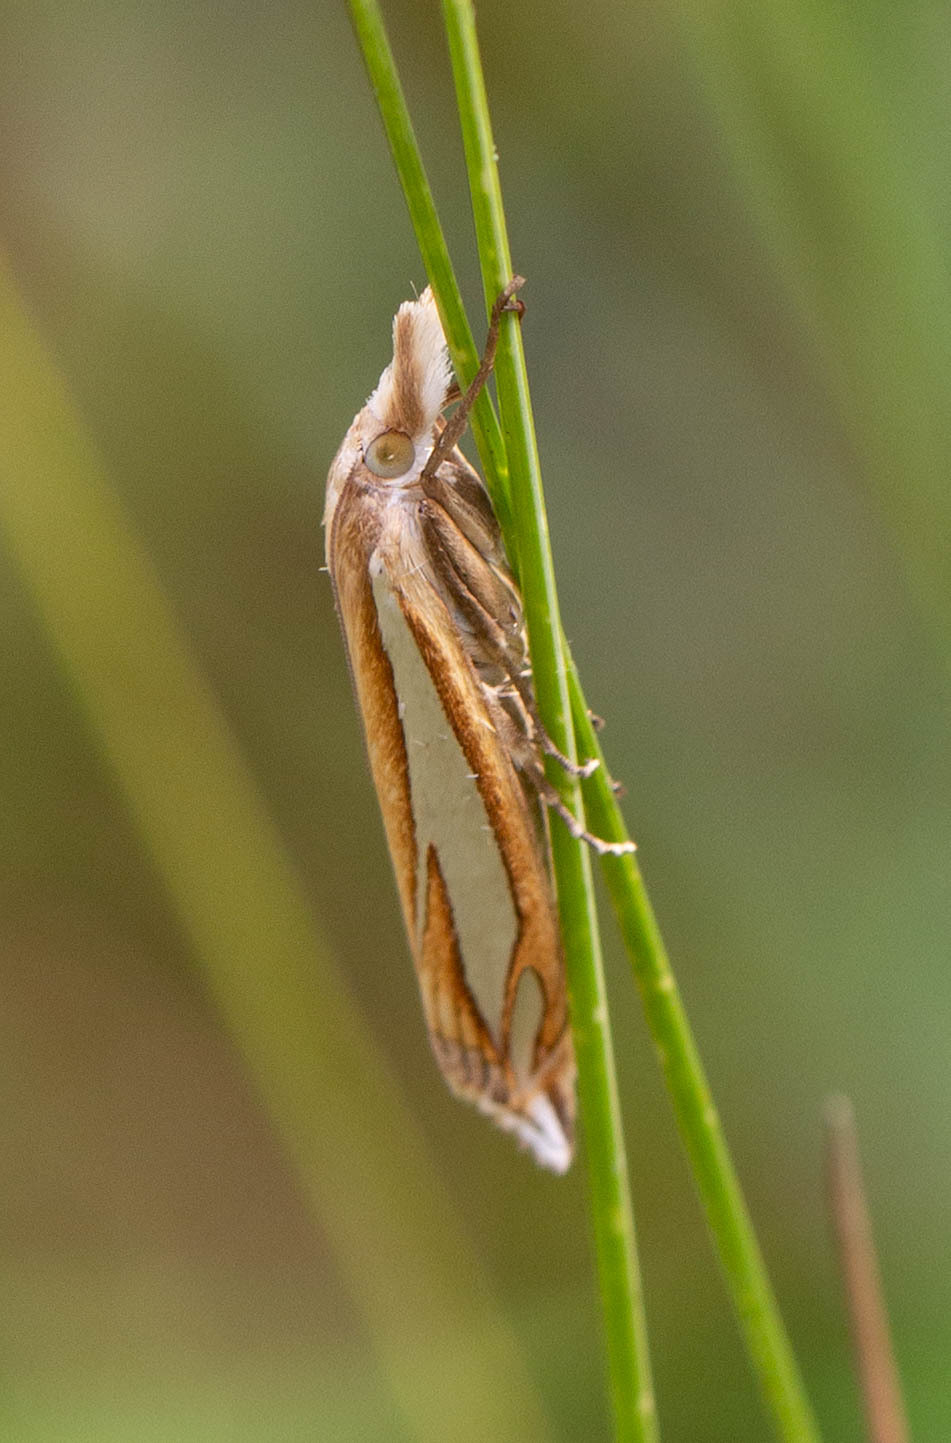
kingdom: Animalia
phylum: Arthropoda
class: Insecta
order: Lepidoptera
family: Crambidae
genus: Crambus
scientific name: Crambus satrapellus
